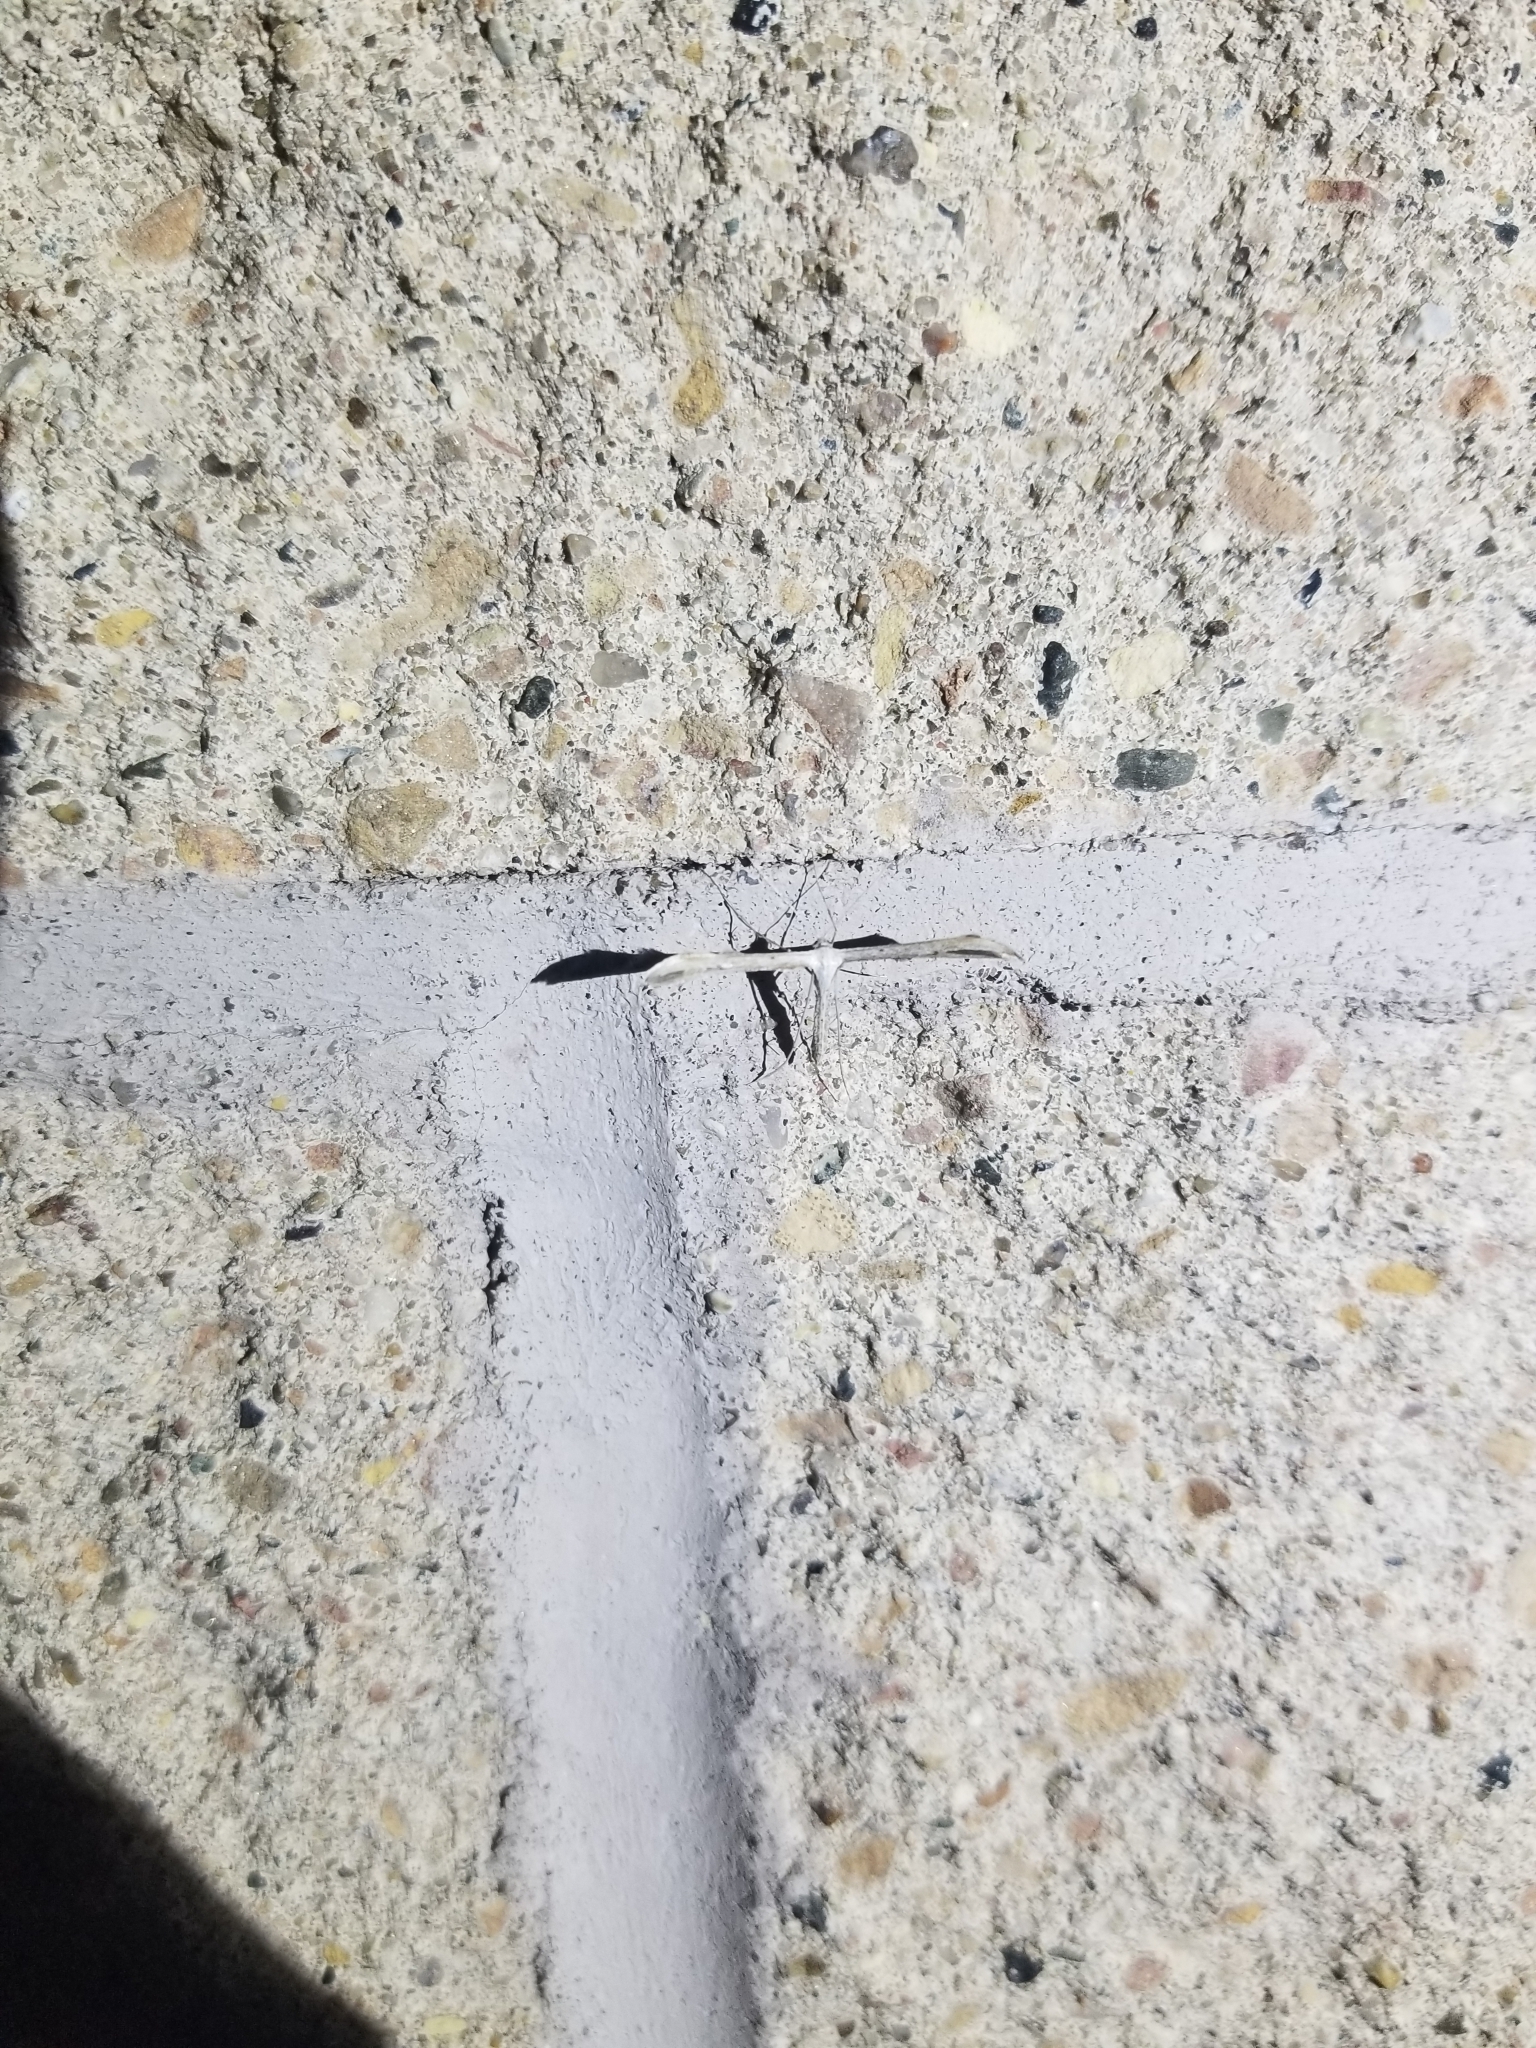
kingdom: Animalia
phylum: Arthropoda
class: Insecta
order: Lepidoptera
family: Pterophoridae
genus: Emmelina
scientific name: Emmelina monodactyla
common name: Common plume
